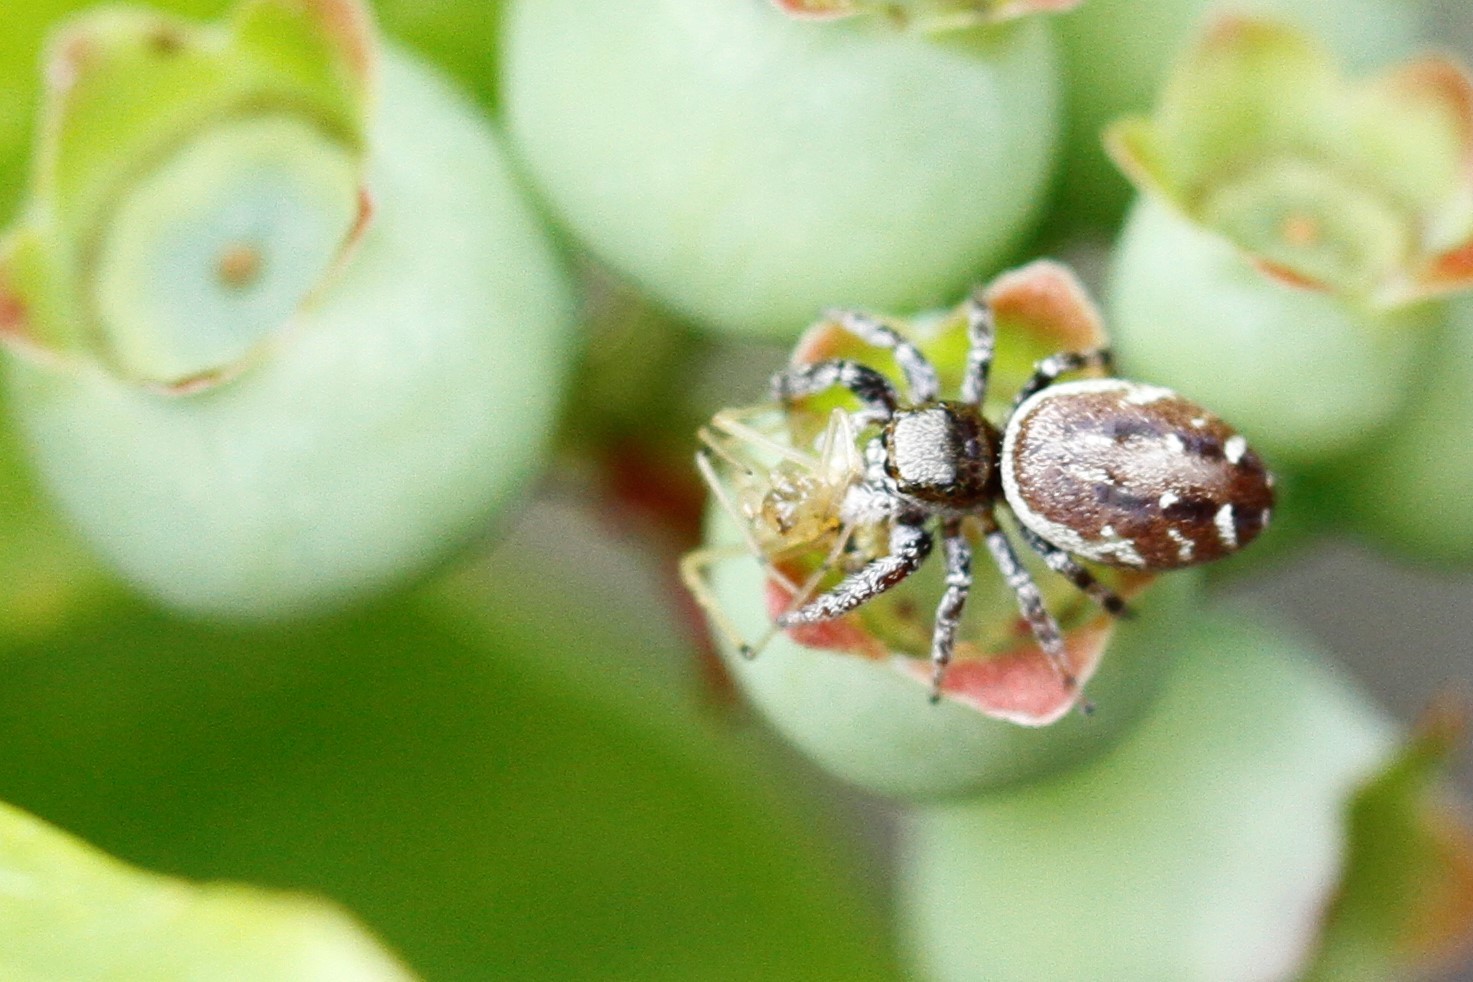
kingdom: Animalia
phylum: Arthropoda
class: Arachnida
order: Araneae
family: Salticidae
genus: Pelegrina
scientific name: Pelegrina aeneola
